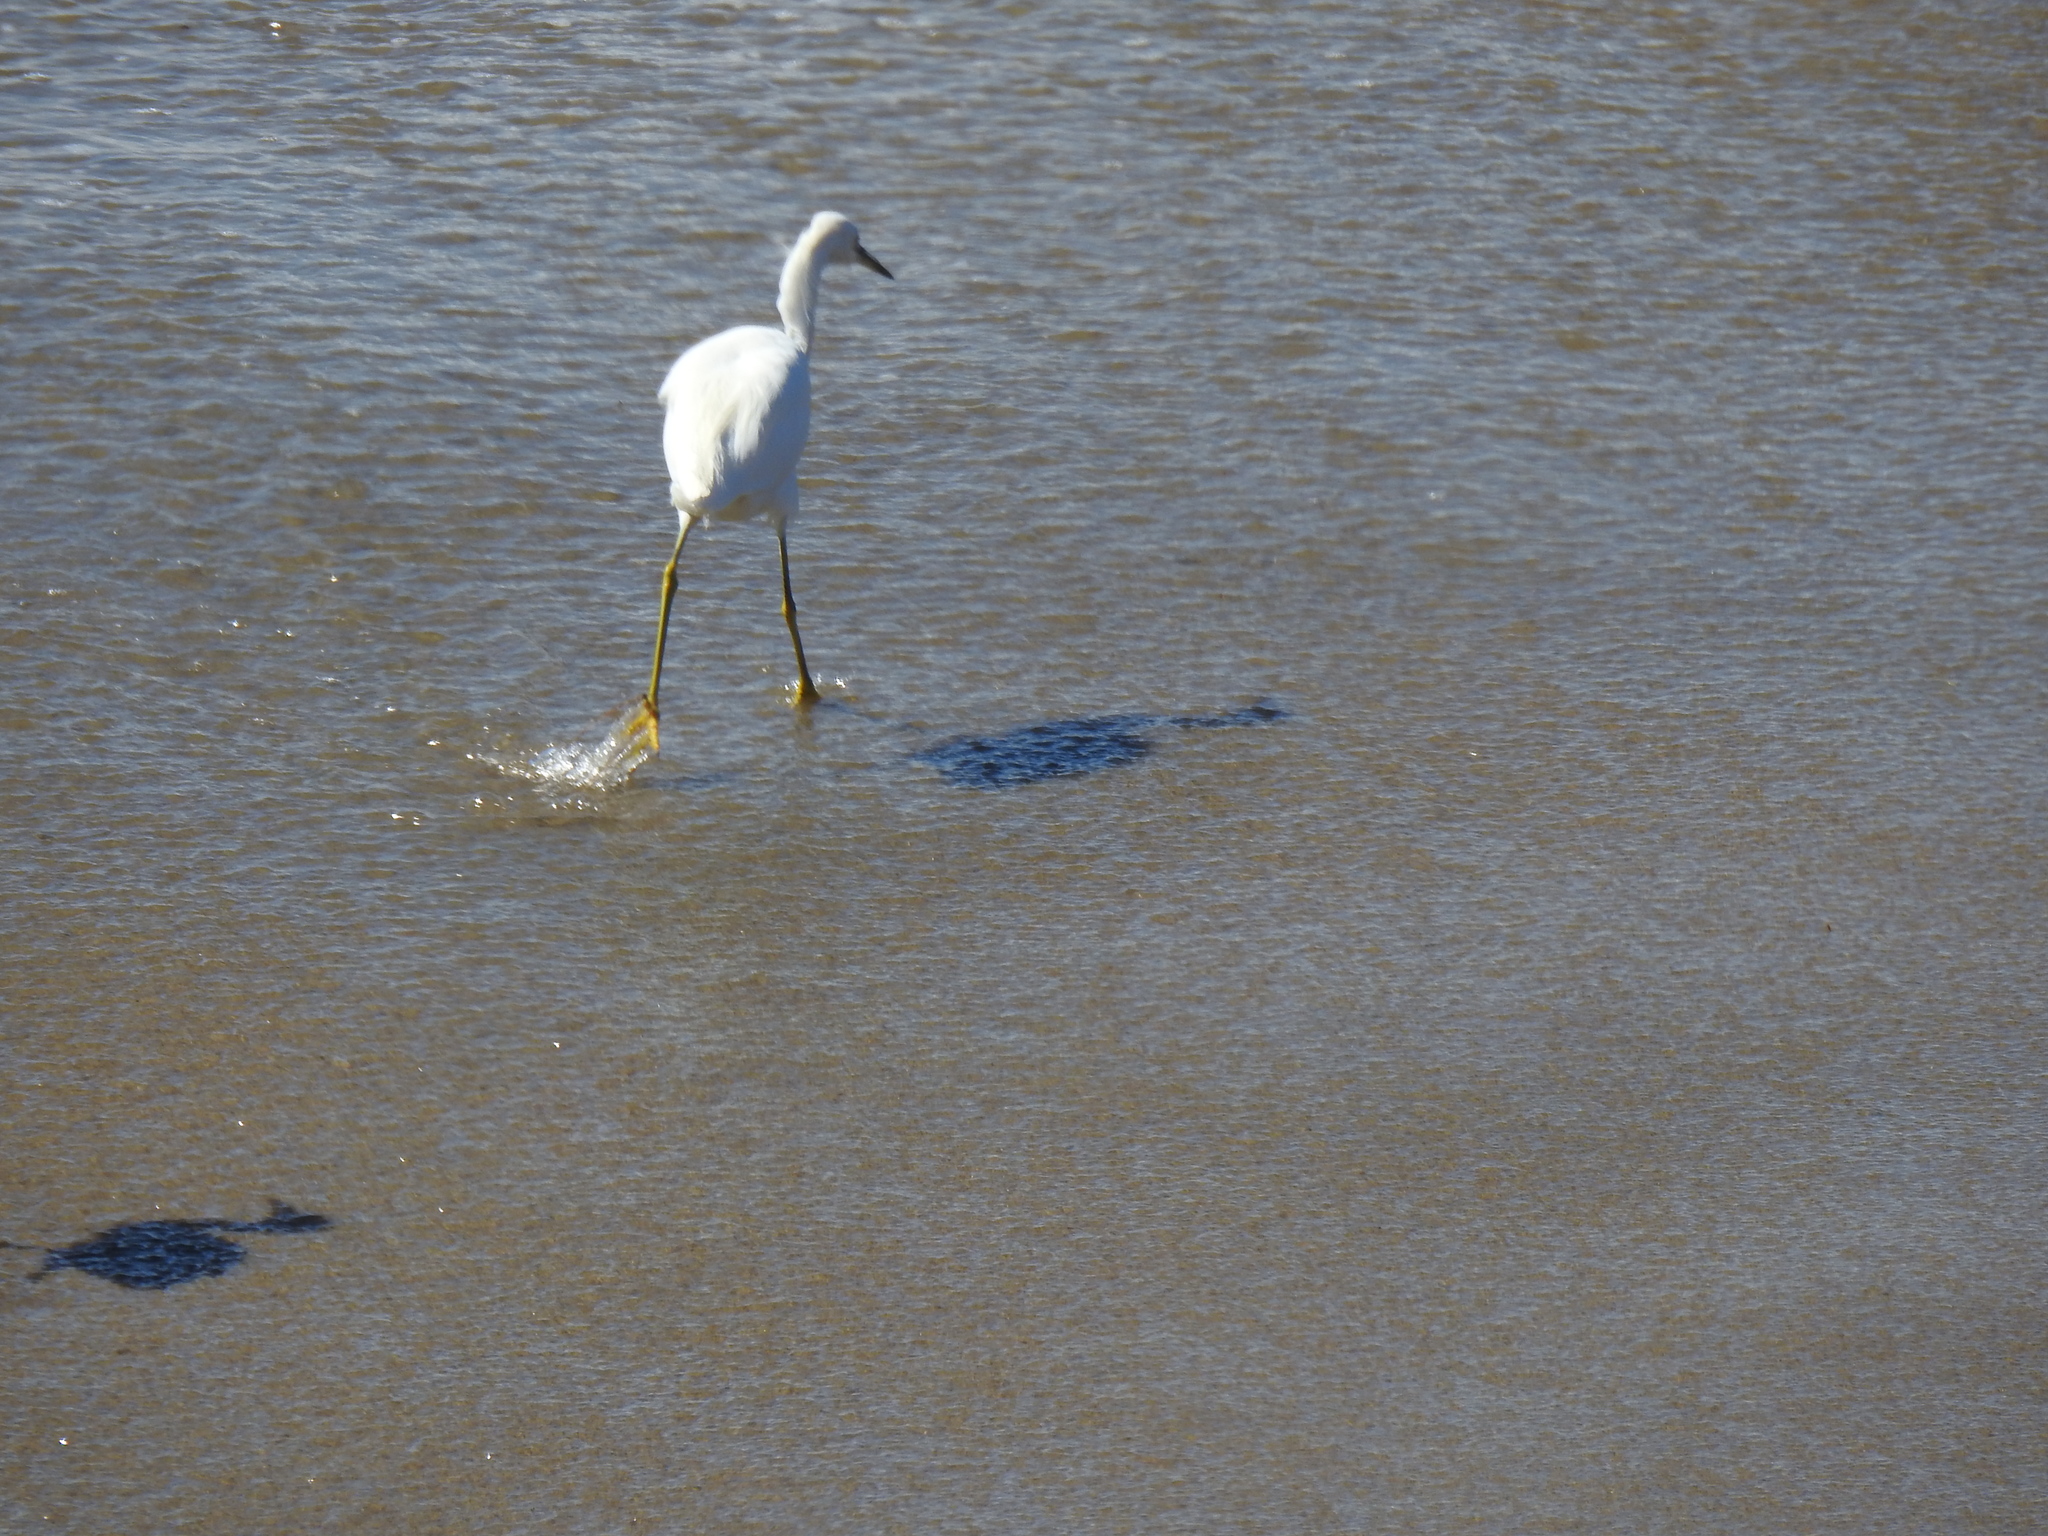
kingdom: Animalia
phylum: Chordata
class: Aves
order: Pelecaniformes
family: Ardeidae
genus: Egretta
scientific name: Egretta thula
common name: Snowy egret
